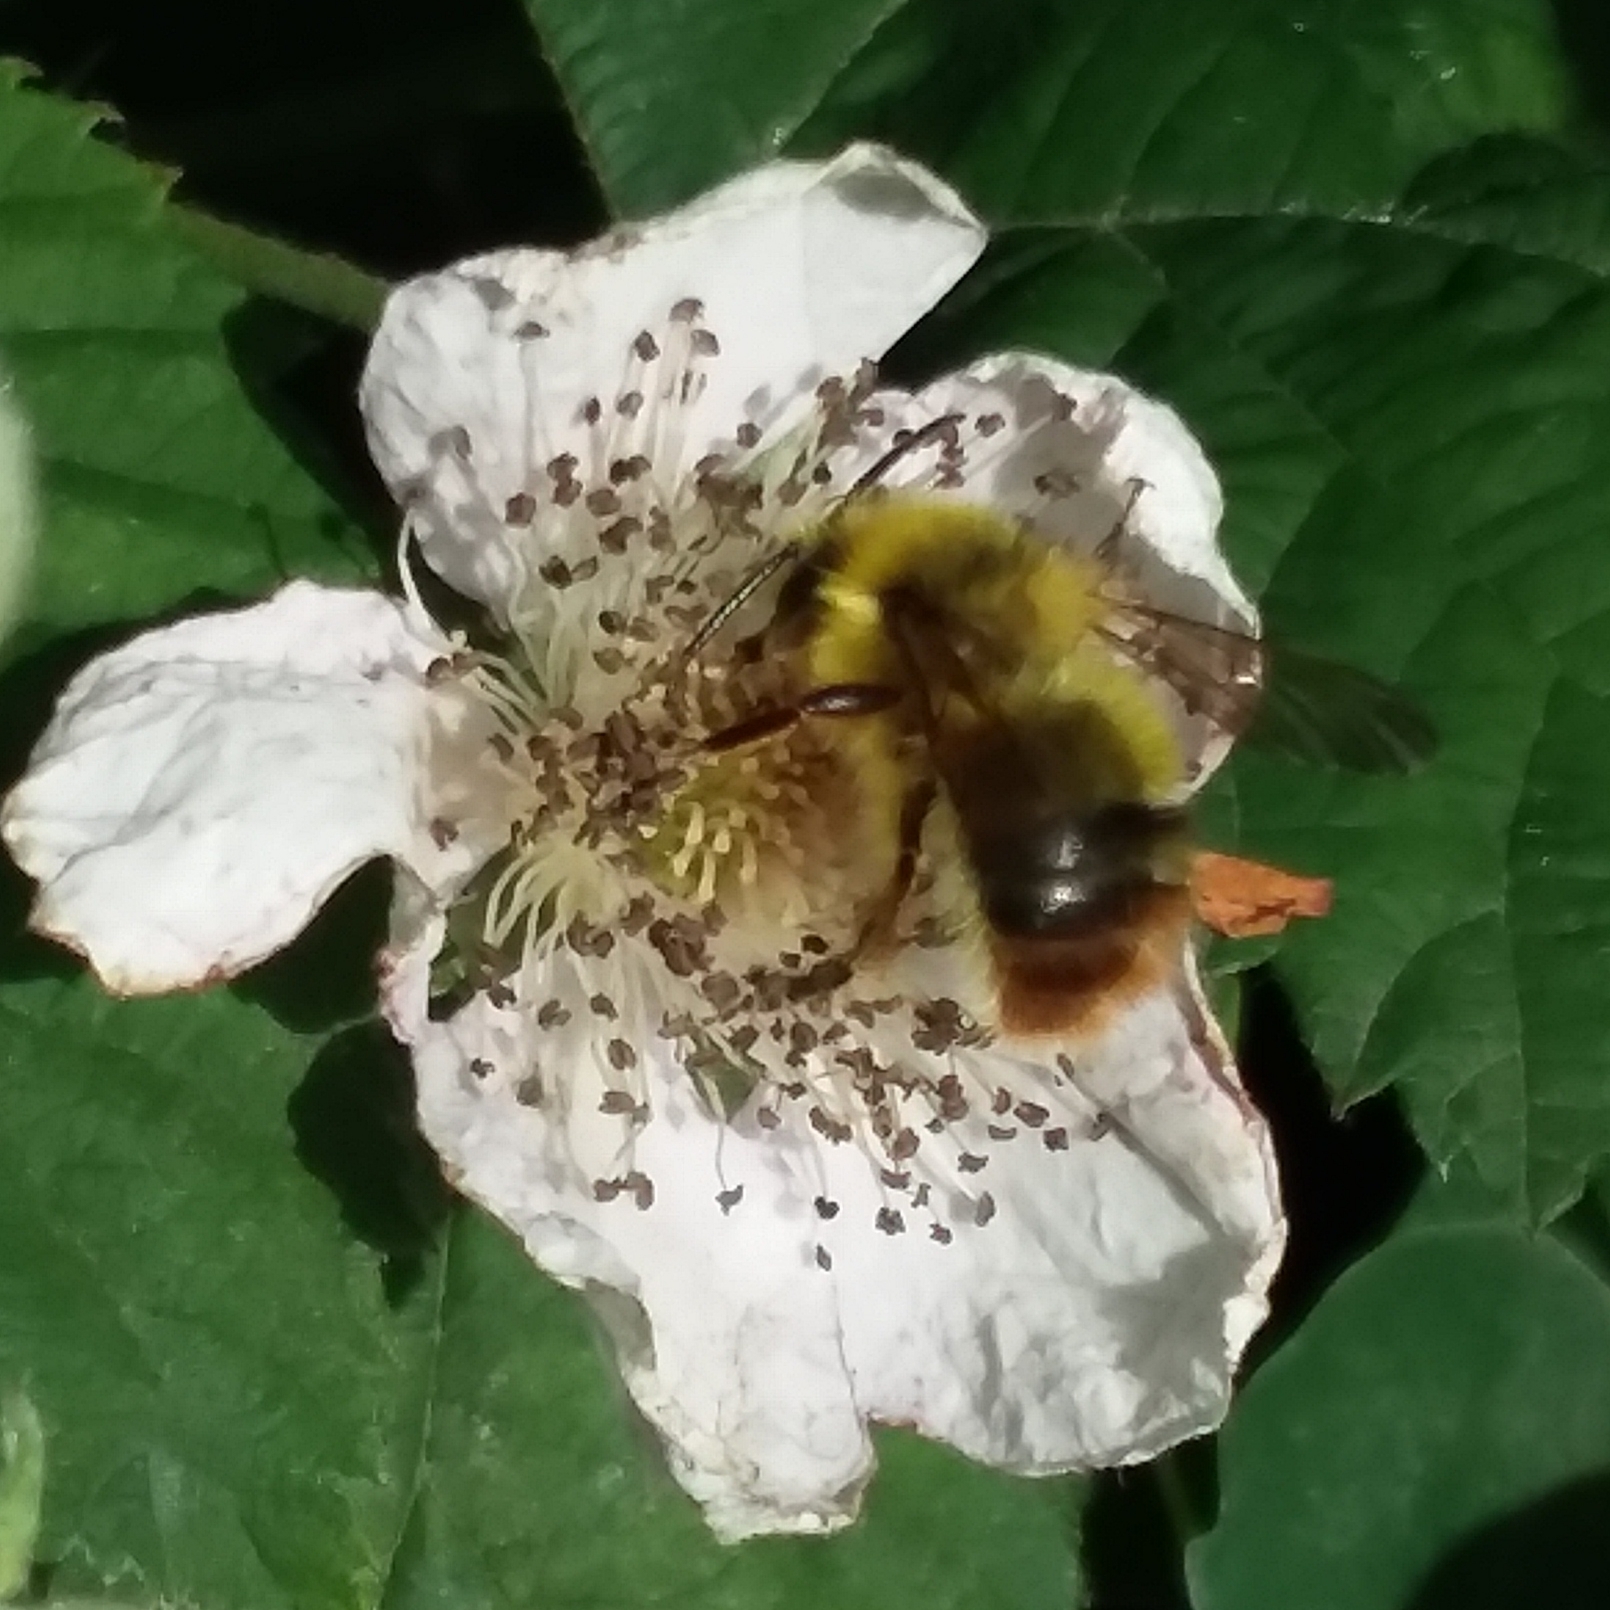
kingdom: Animalia
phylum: Arthropoda
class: Insecta
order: Hymenoptera
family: Apidae
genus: Bombus
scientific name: Bombus mixtus
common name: Fuzzy-horned bumble bee
